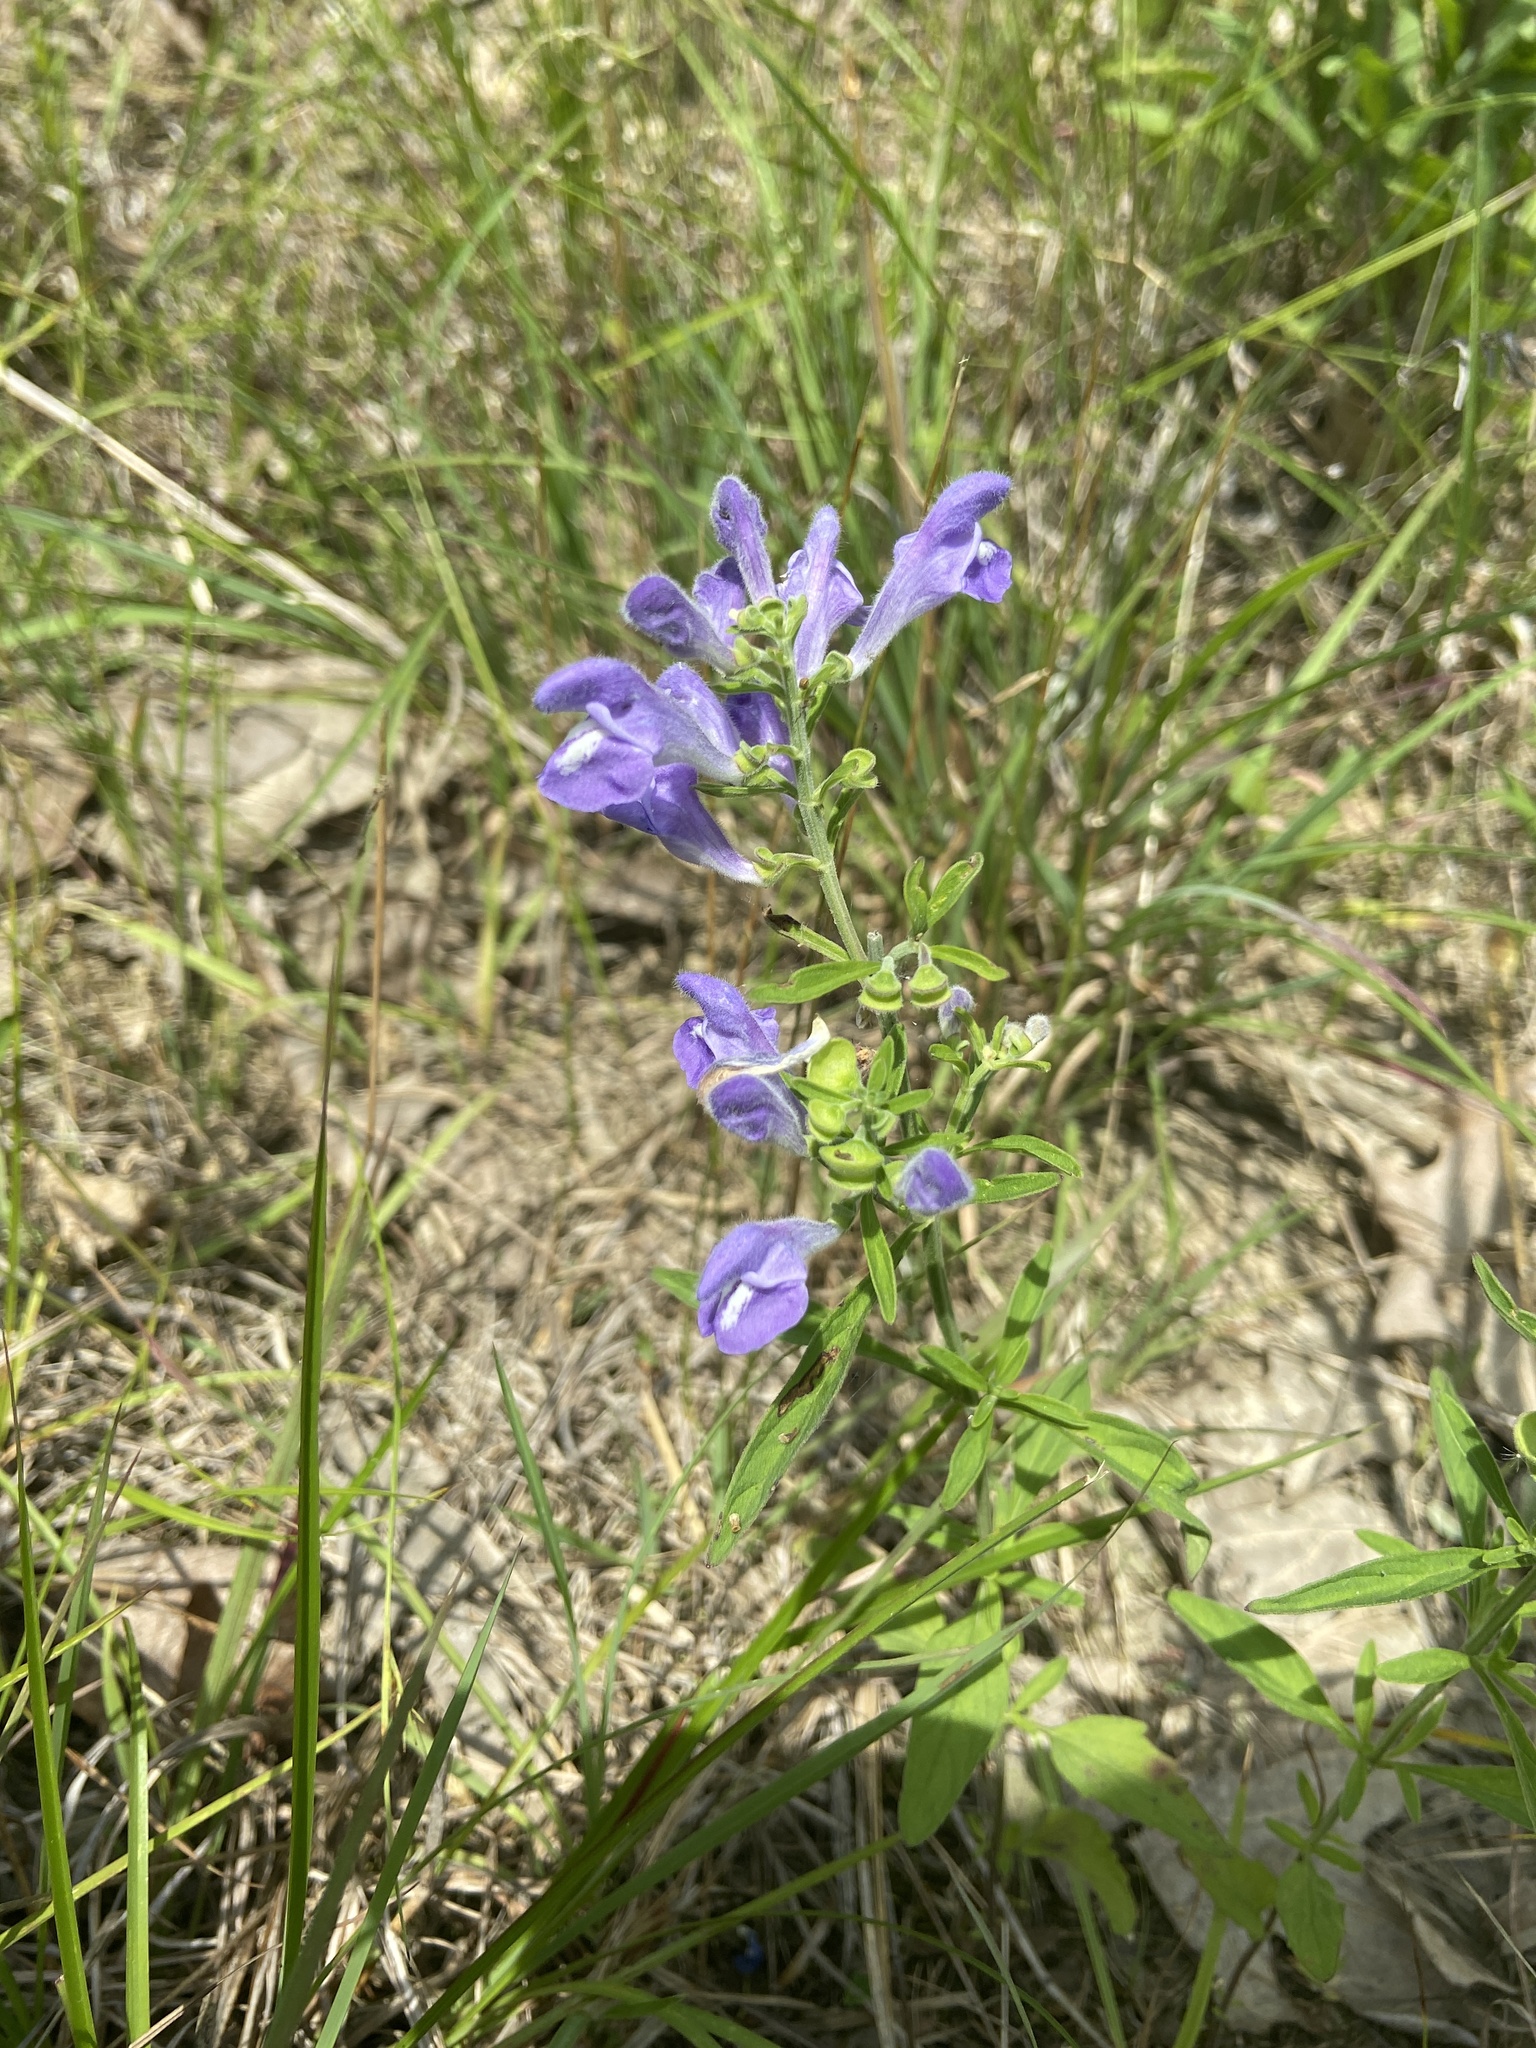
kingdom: Plantae
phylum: Tracheophyta
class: Magnoliopsida
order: Lamiales
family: Lamiaceae
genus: Scutellaria
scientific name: Scutellaria integrifolia
